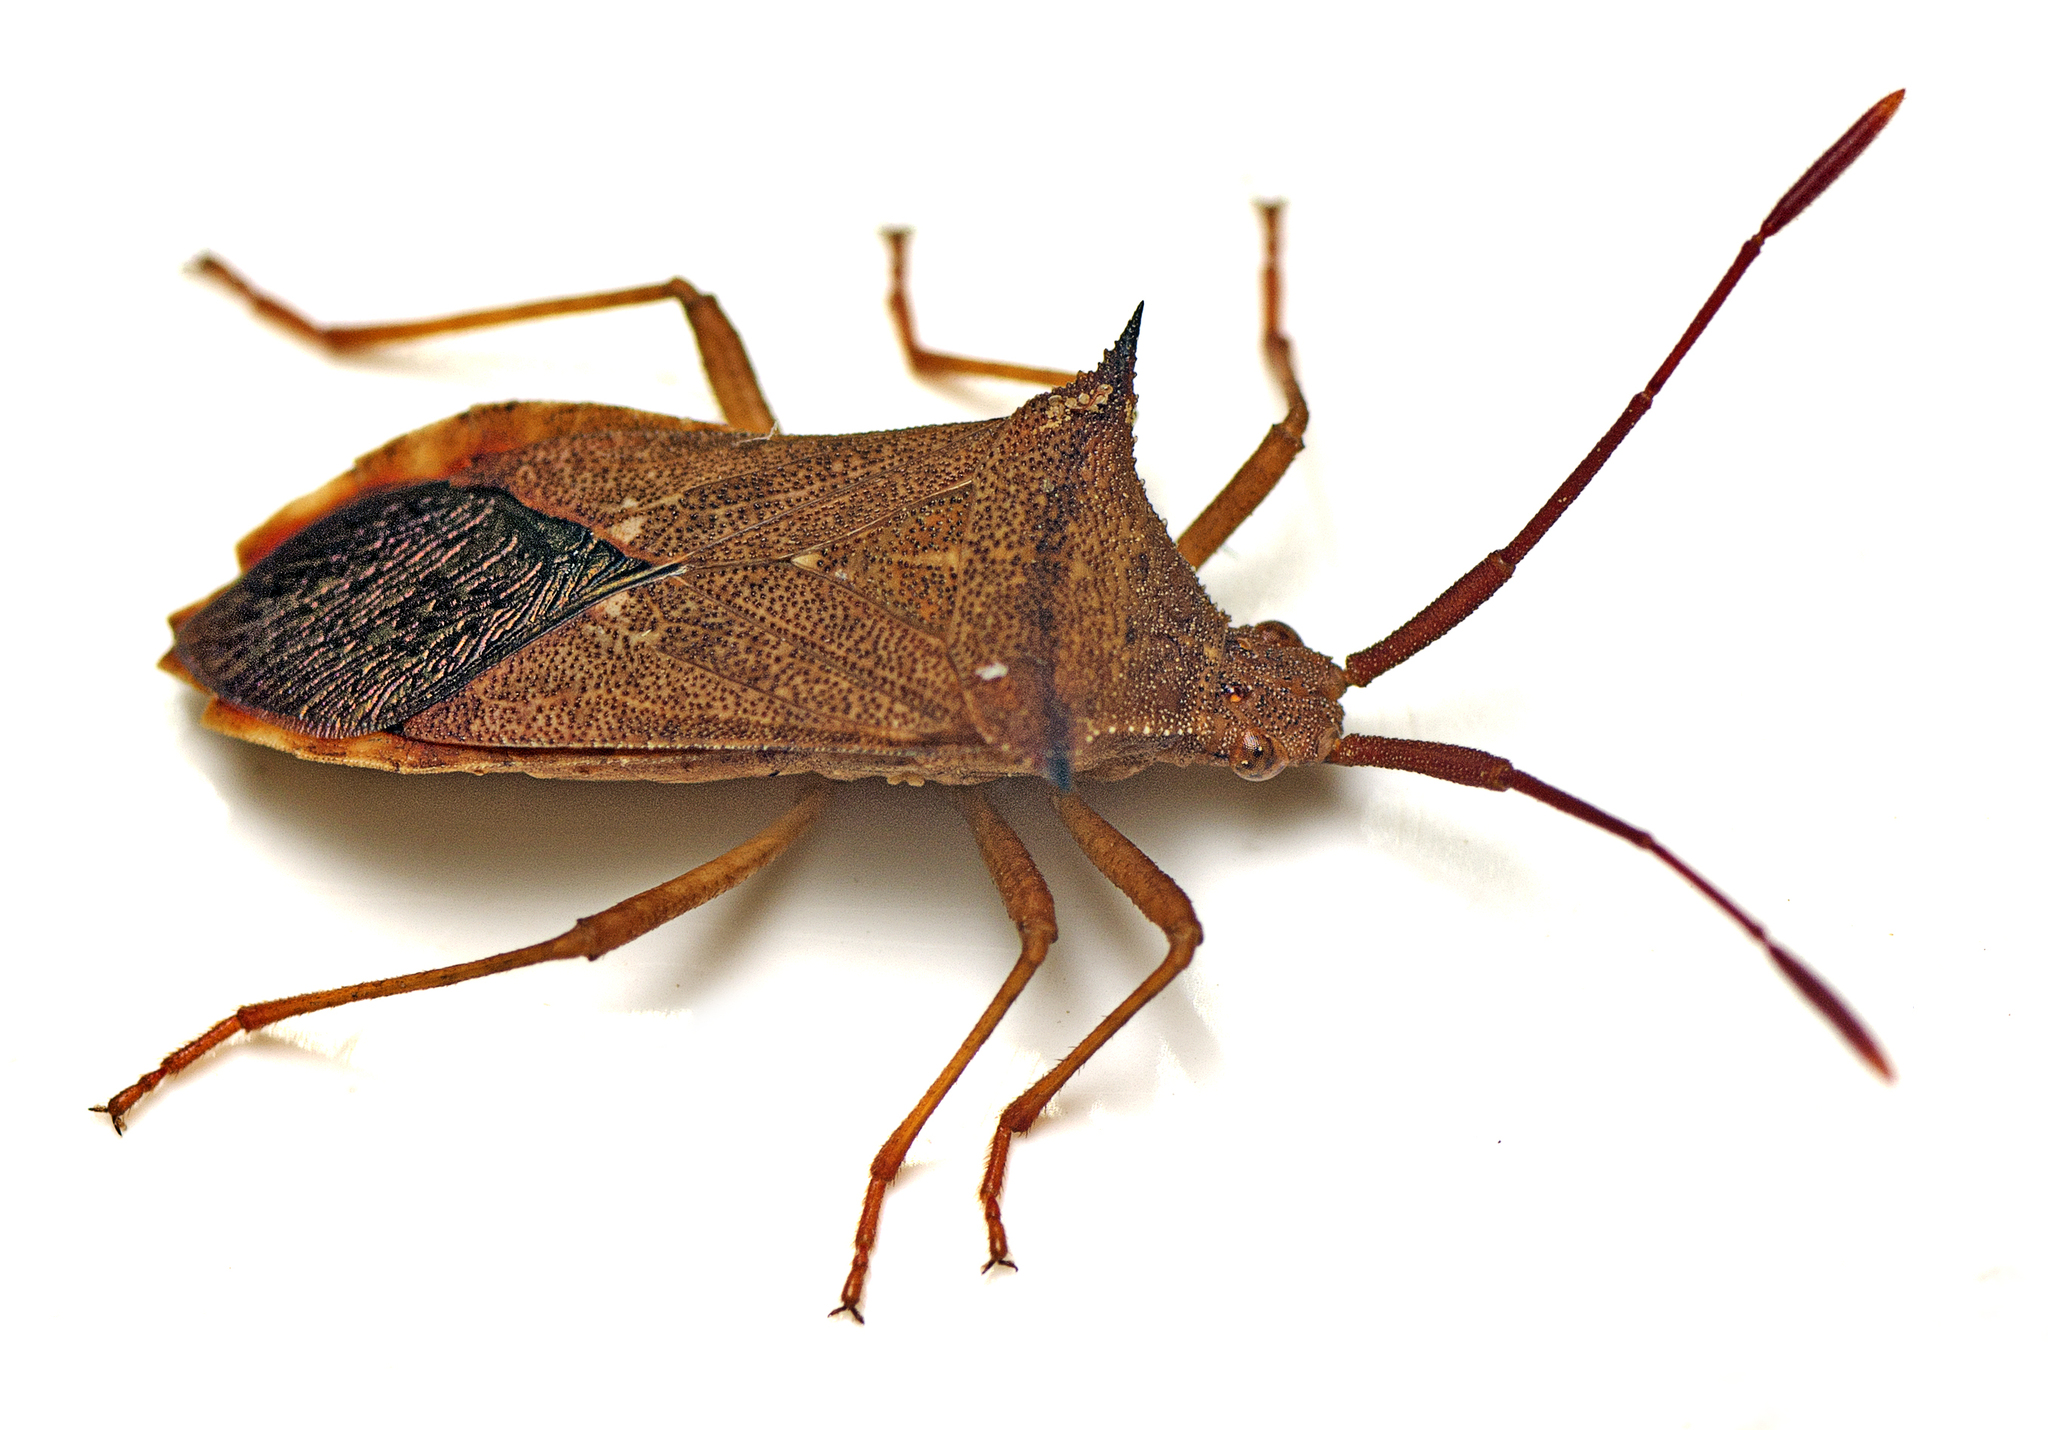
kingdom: Animalia
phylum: Arthropoda
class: Insecta
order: Hemiptera
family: Coreidae
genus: Cletus
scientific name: Cletus saucius
